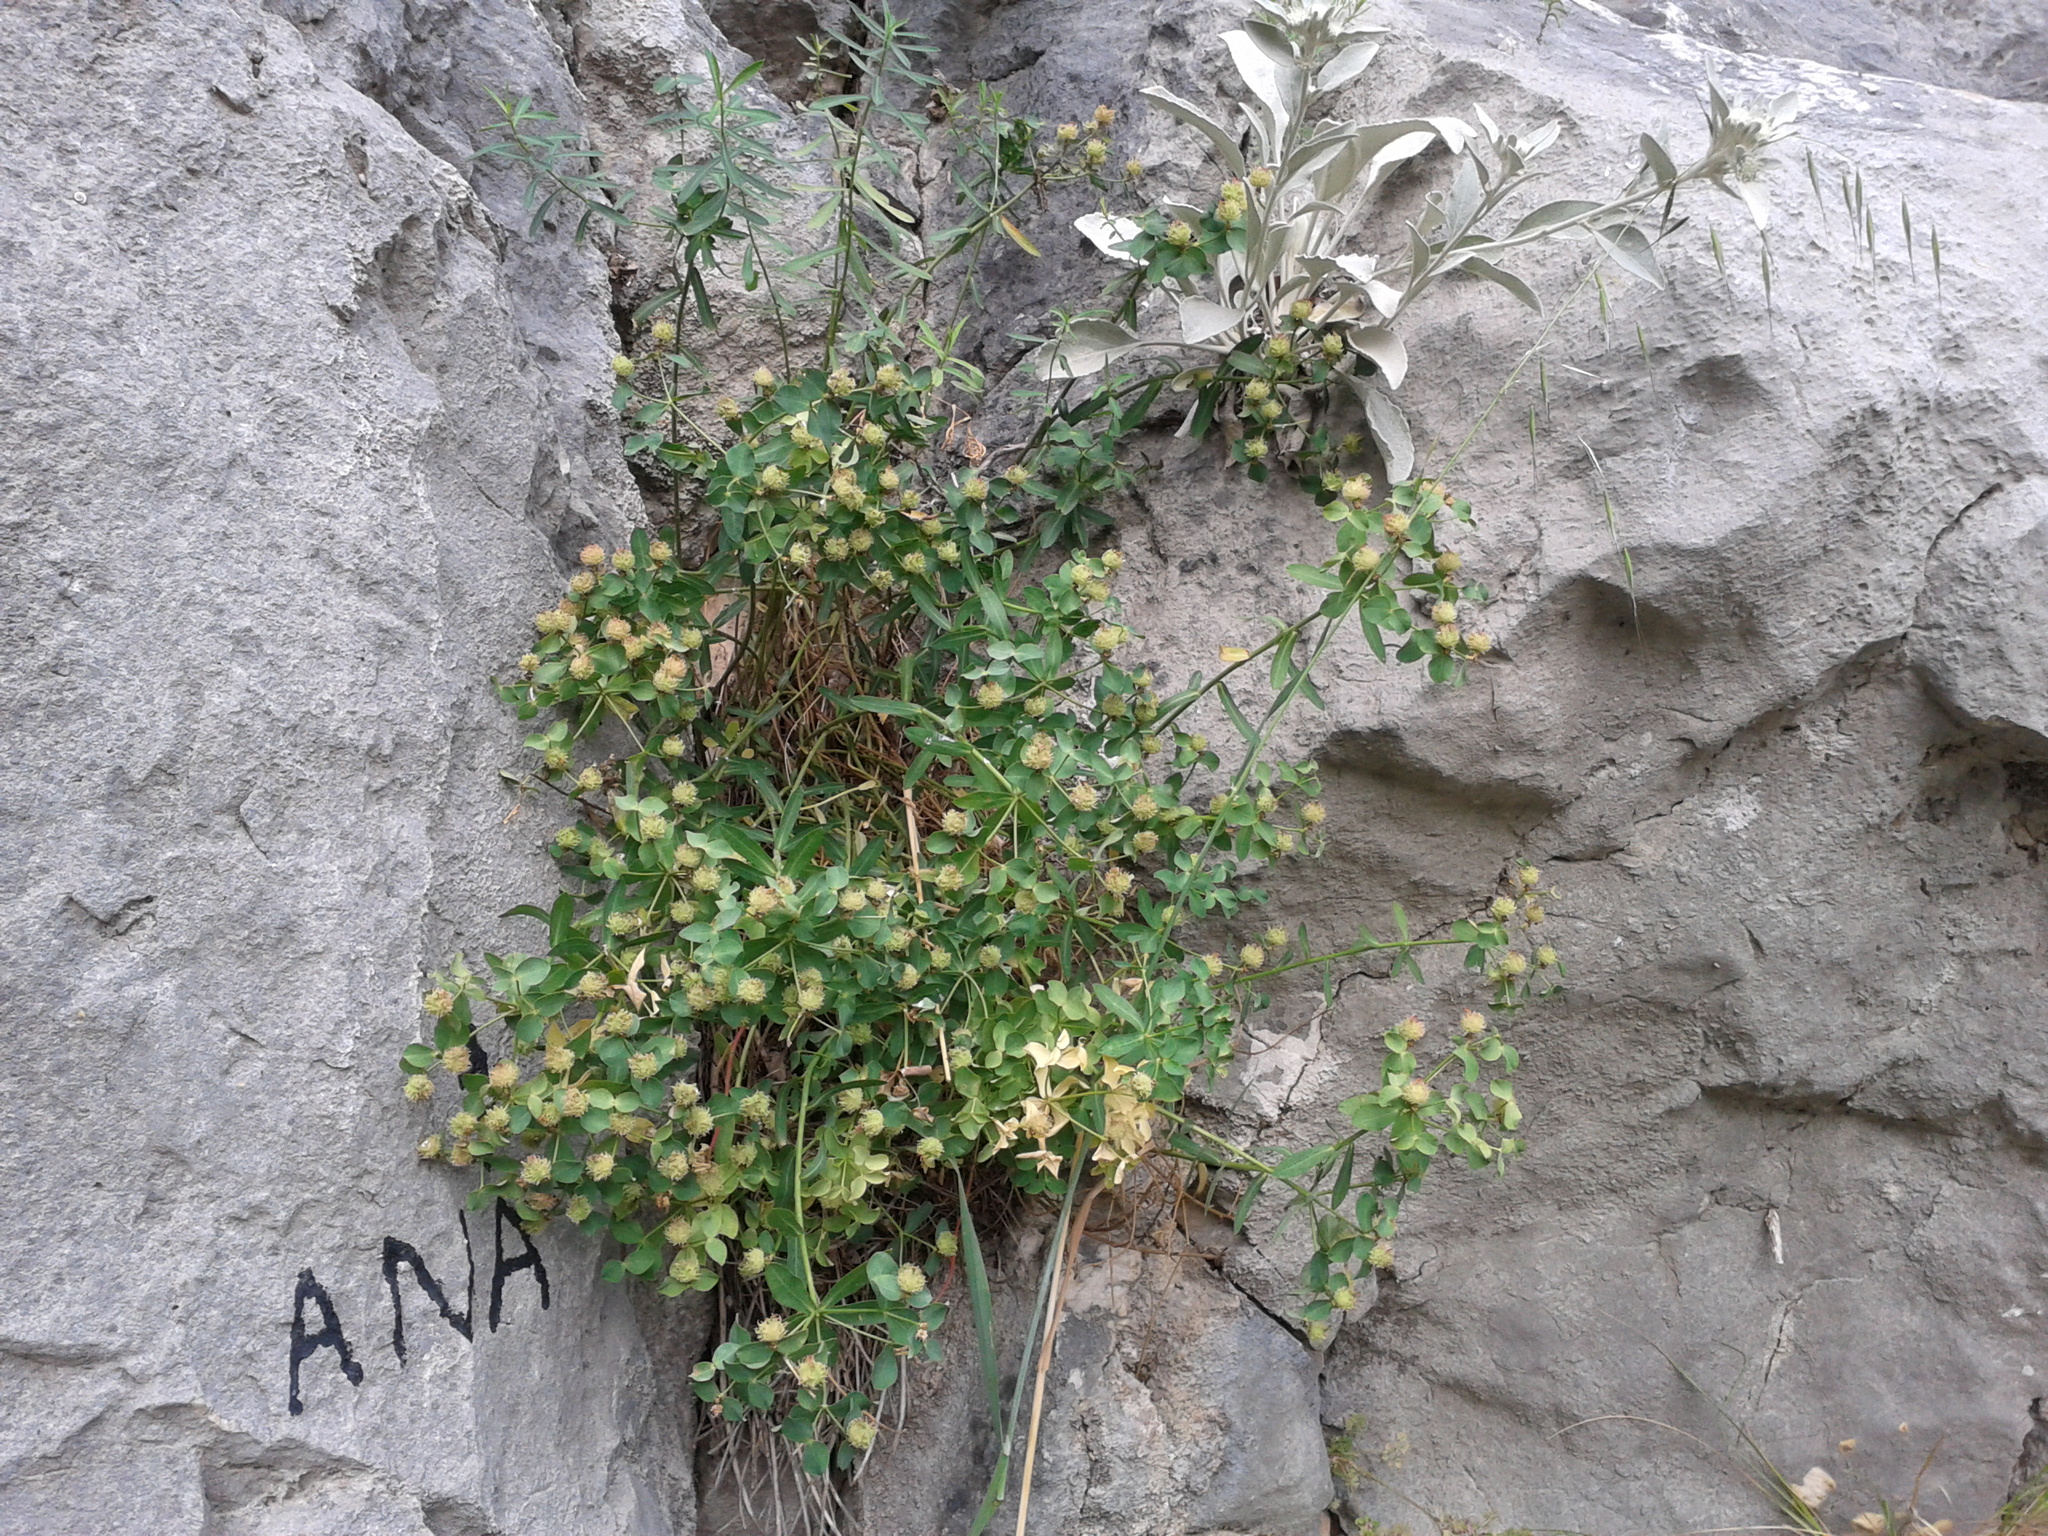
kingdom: Plantae
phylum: Tracheophyta
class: Magnoliopsida
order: Malpighiales
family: Euphorbiaceae
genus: Euphorbia
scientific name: Euphorbia fragifera
